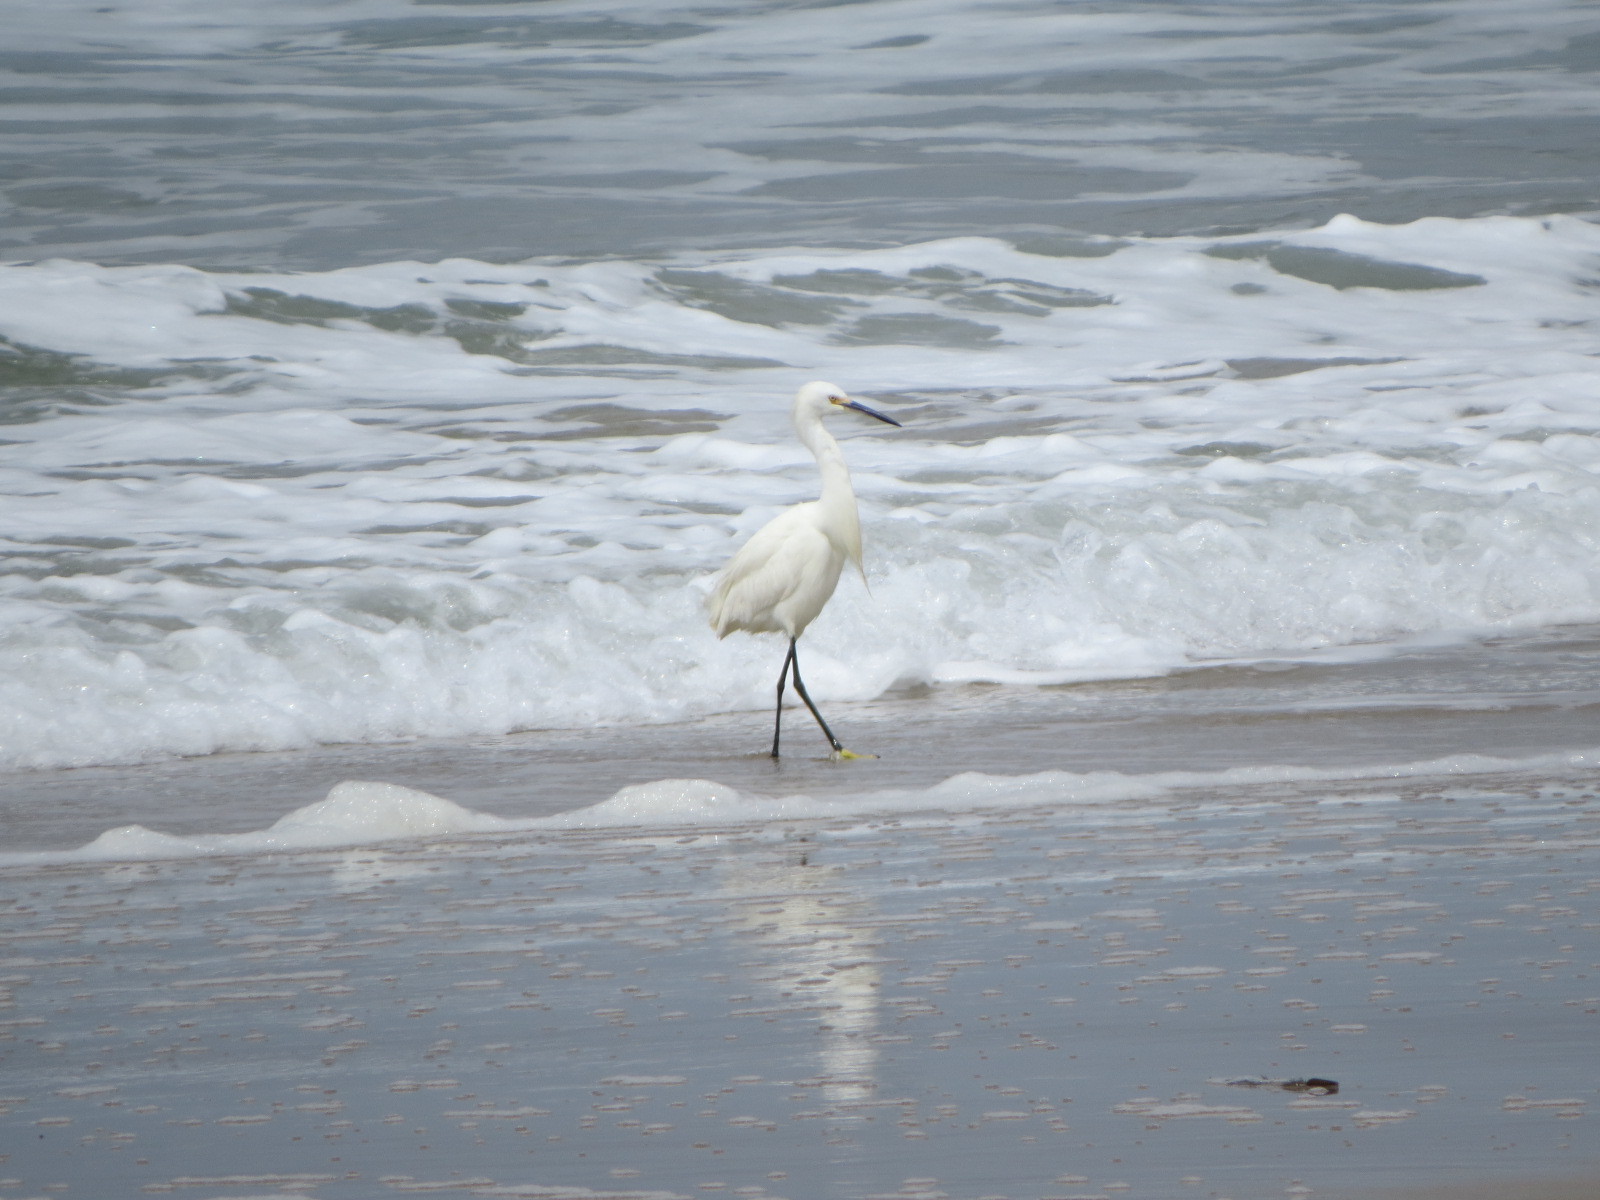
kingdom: Animalia
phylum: Chordata
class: Aves
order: Pelecaniformes
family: Ardeidae
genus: Egretta
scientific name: Egretta thula
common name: Snowy egret
